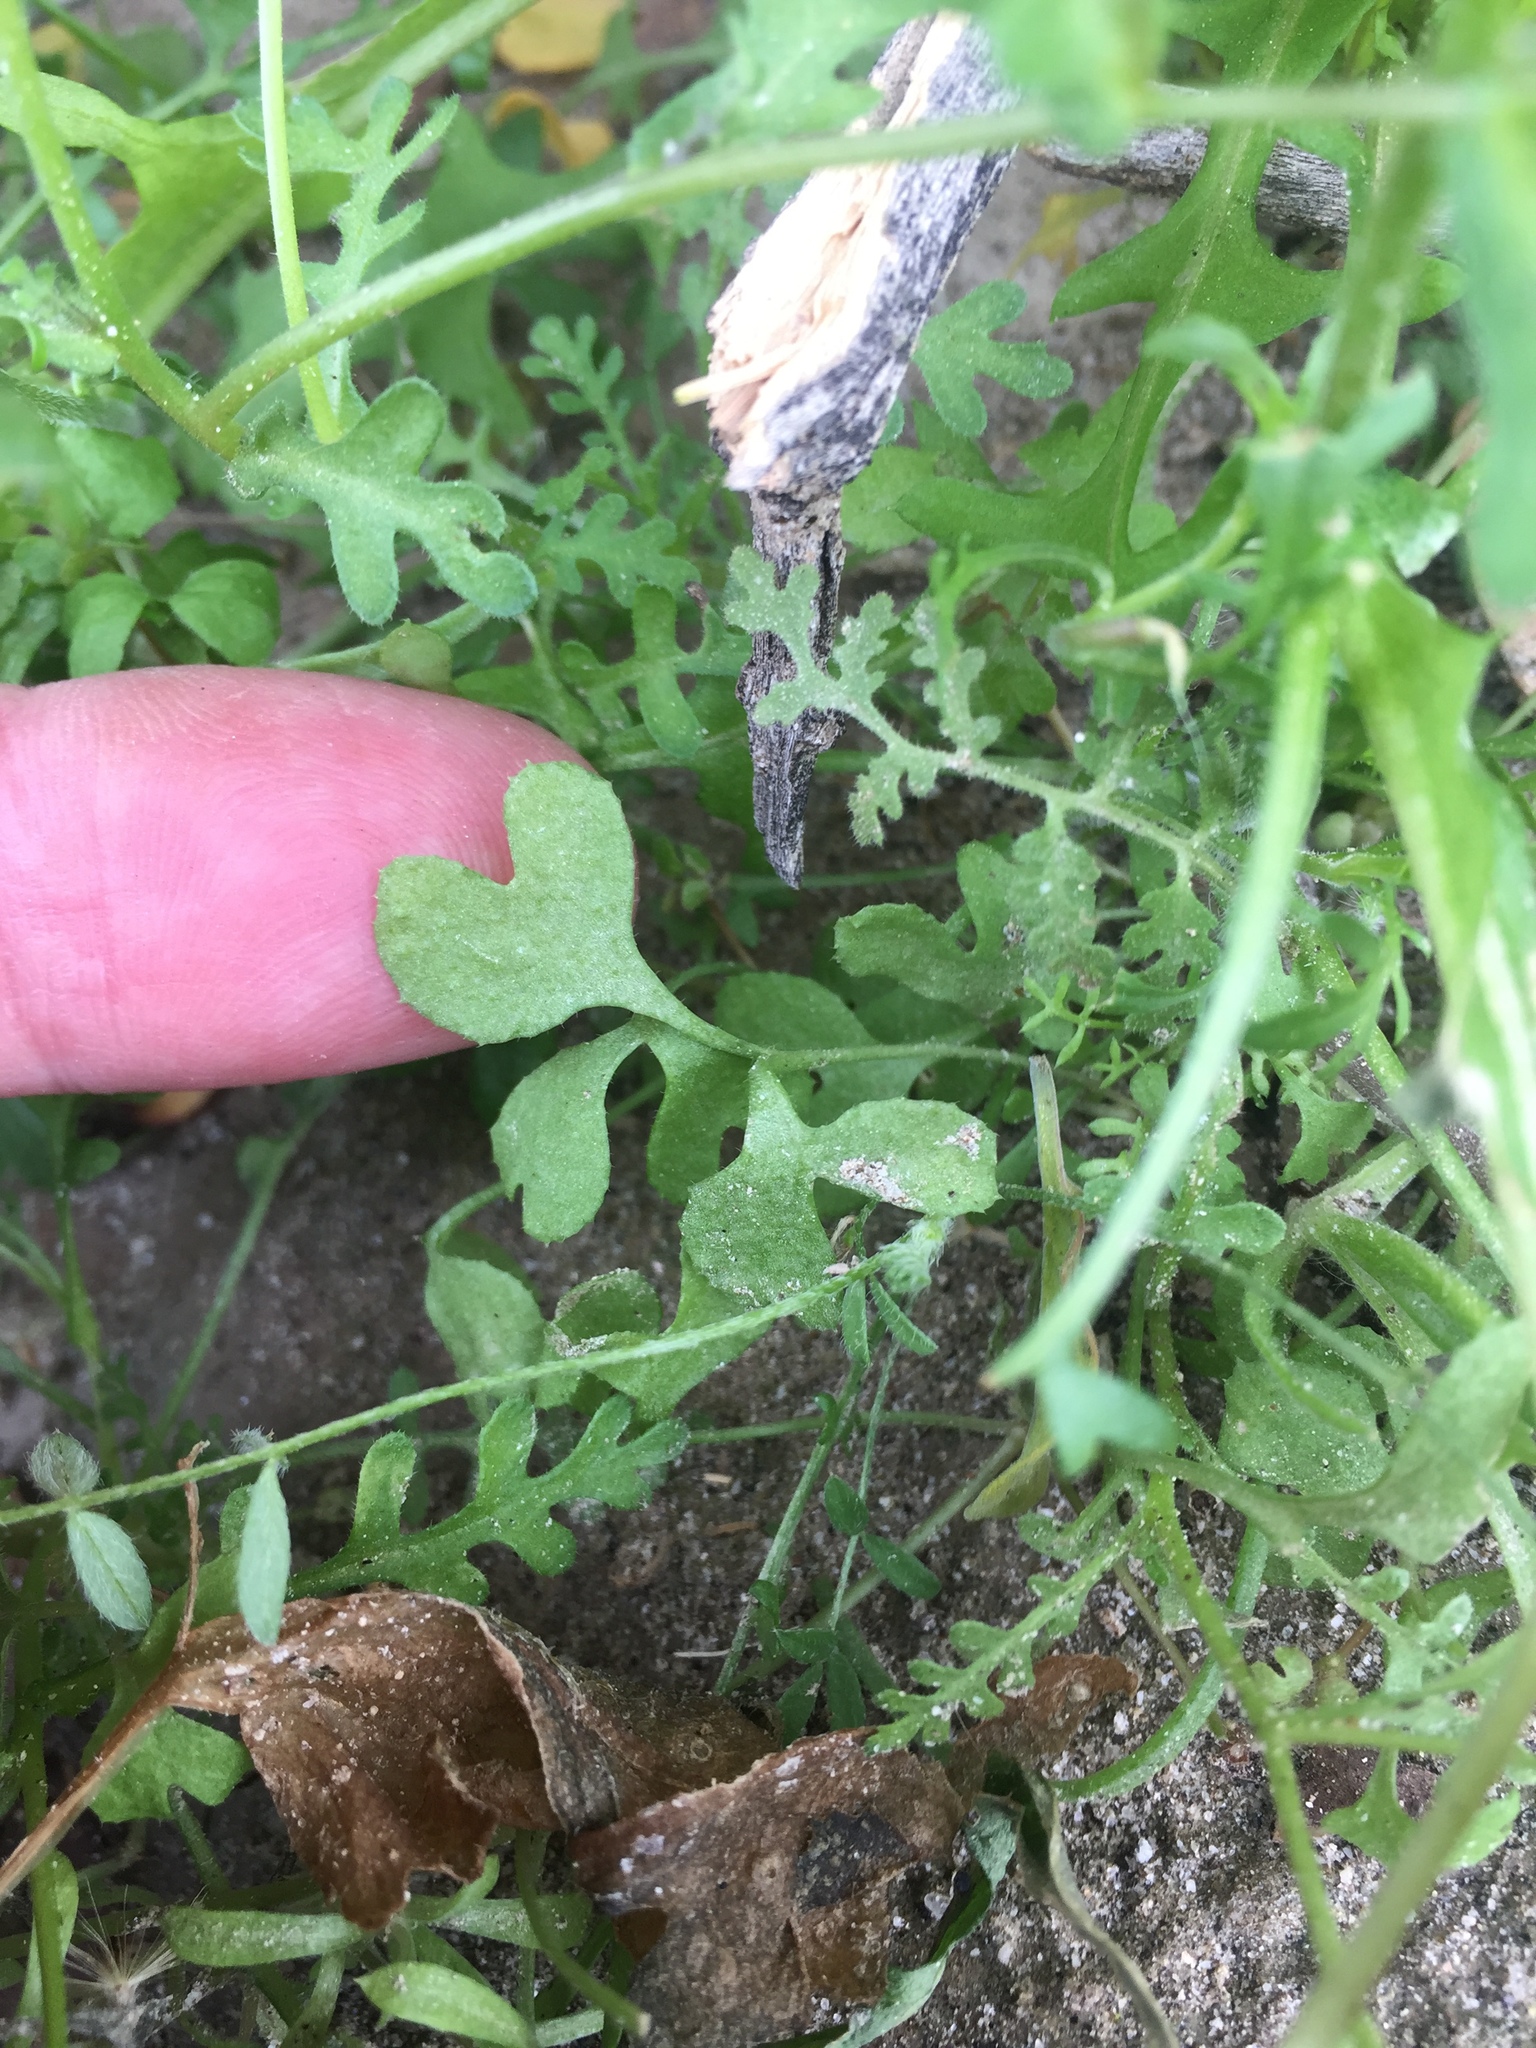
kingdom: Plantae
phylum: Tracheophyta
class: Magnoliopsida
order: Caryophyllales
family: Polygonaceae
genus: Pterostegia
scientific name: Pterostegia drymarioides
